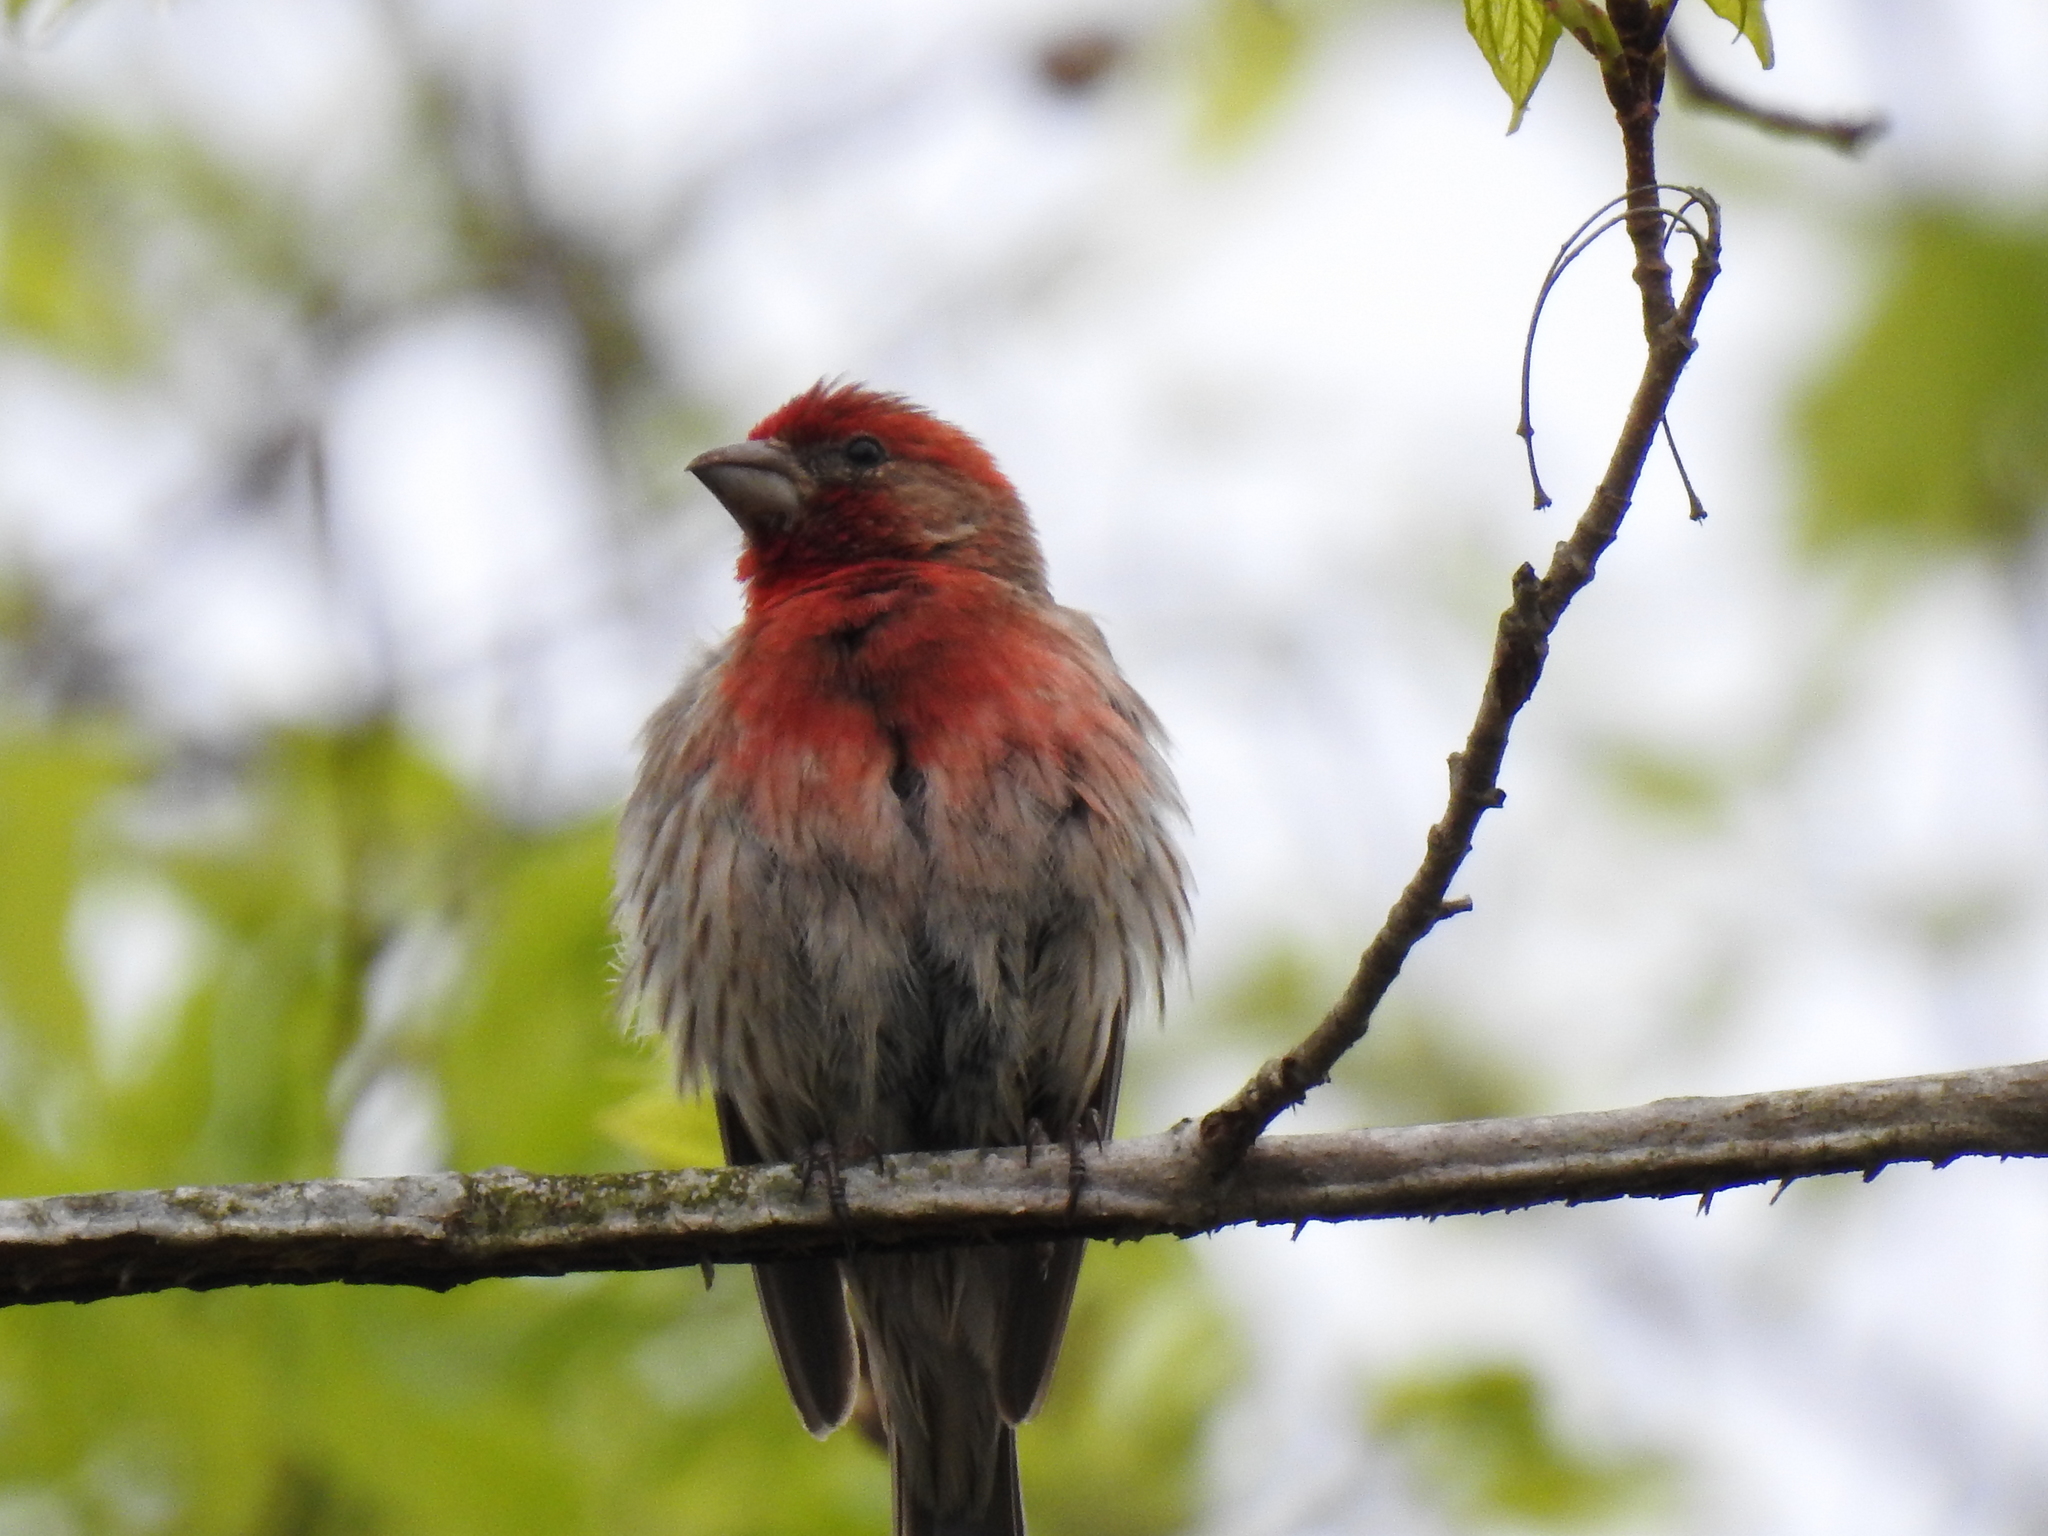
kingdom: Animalia
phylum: Chordata
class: Aves
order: Passeriformes
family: Fringillidae
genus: Haemorhous
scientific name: Haemorhous mexicanus
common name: House finch
